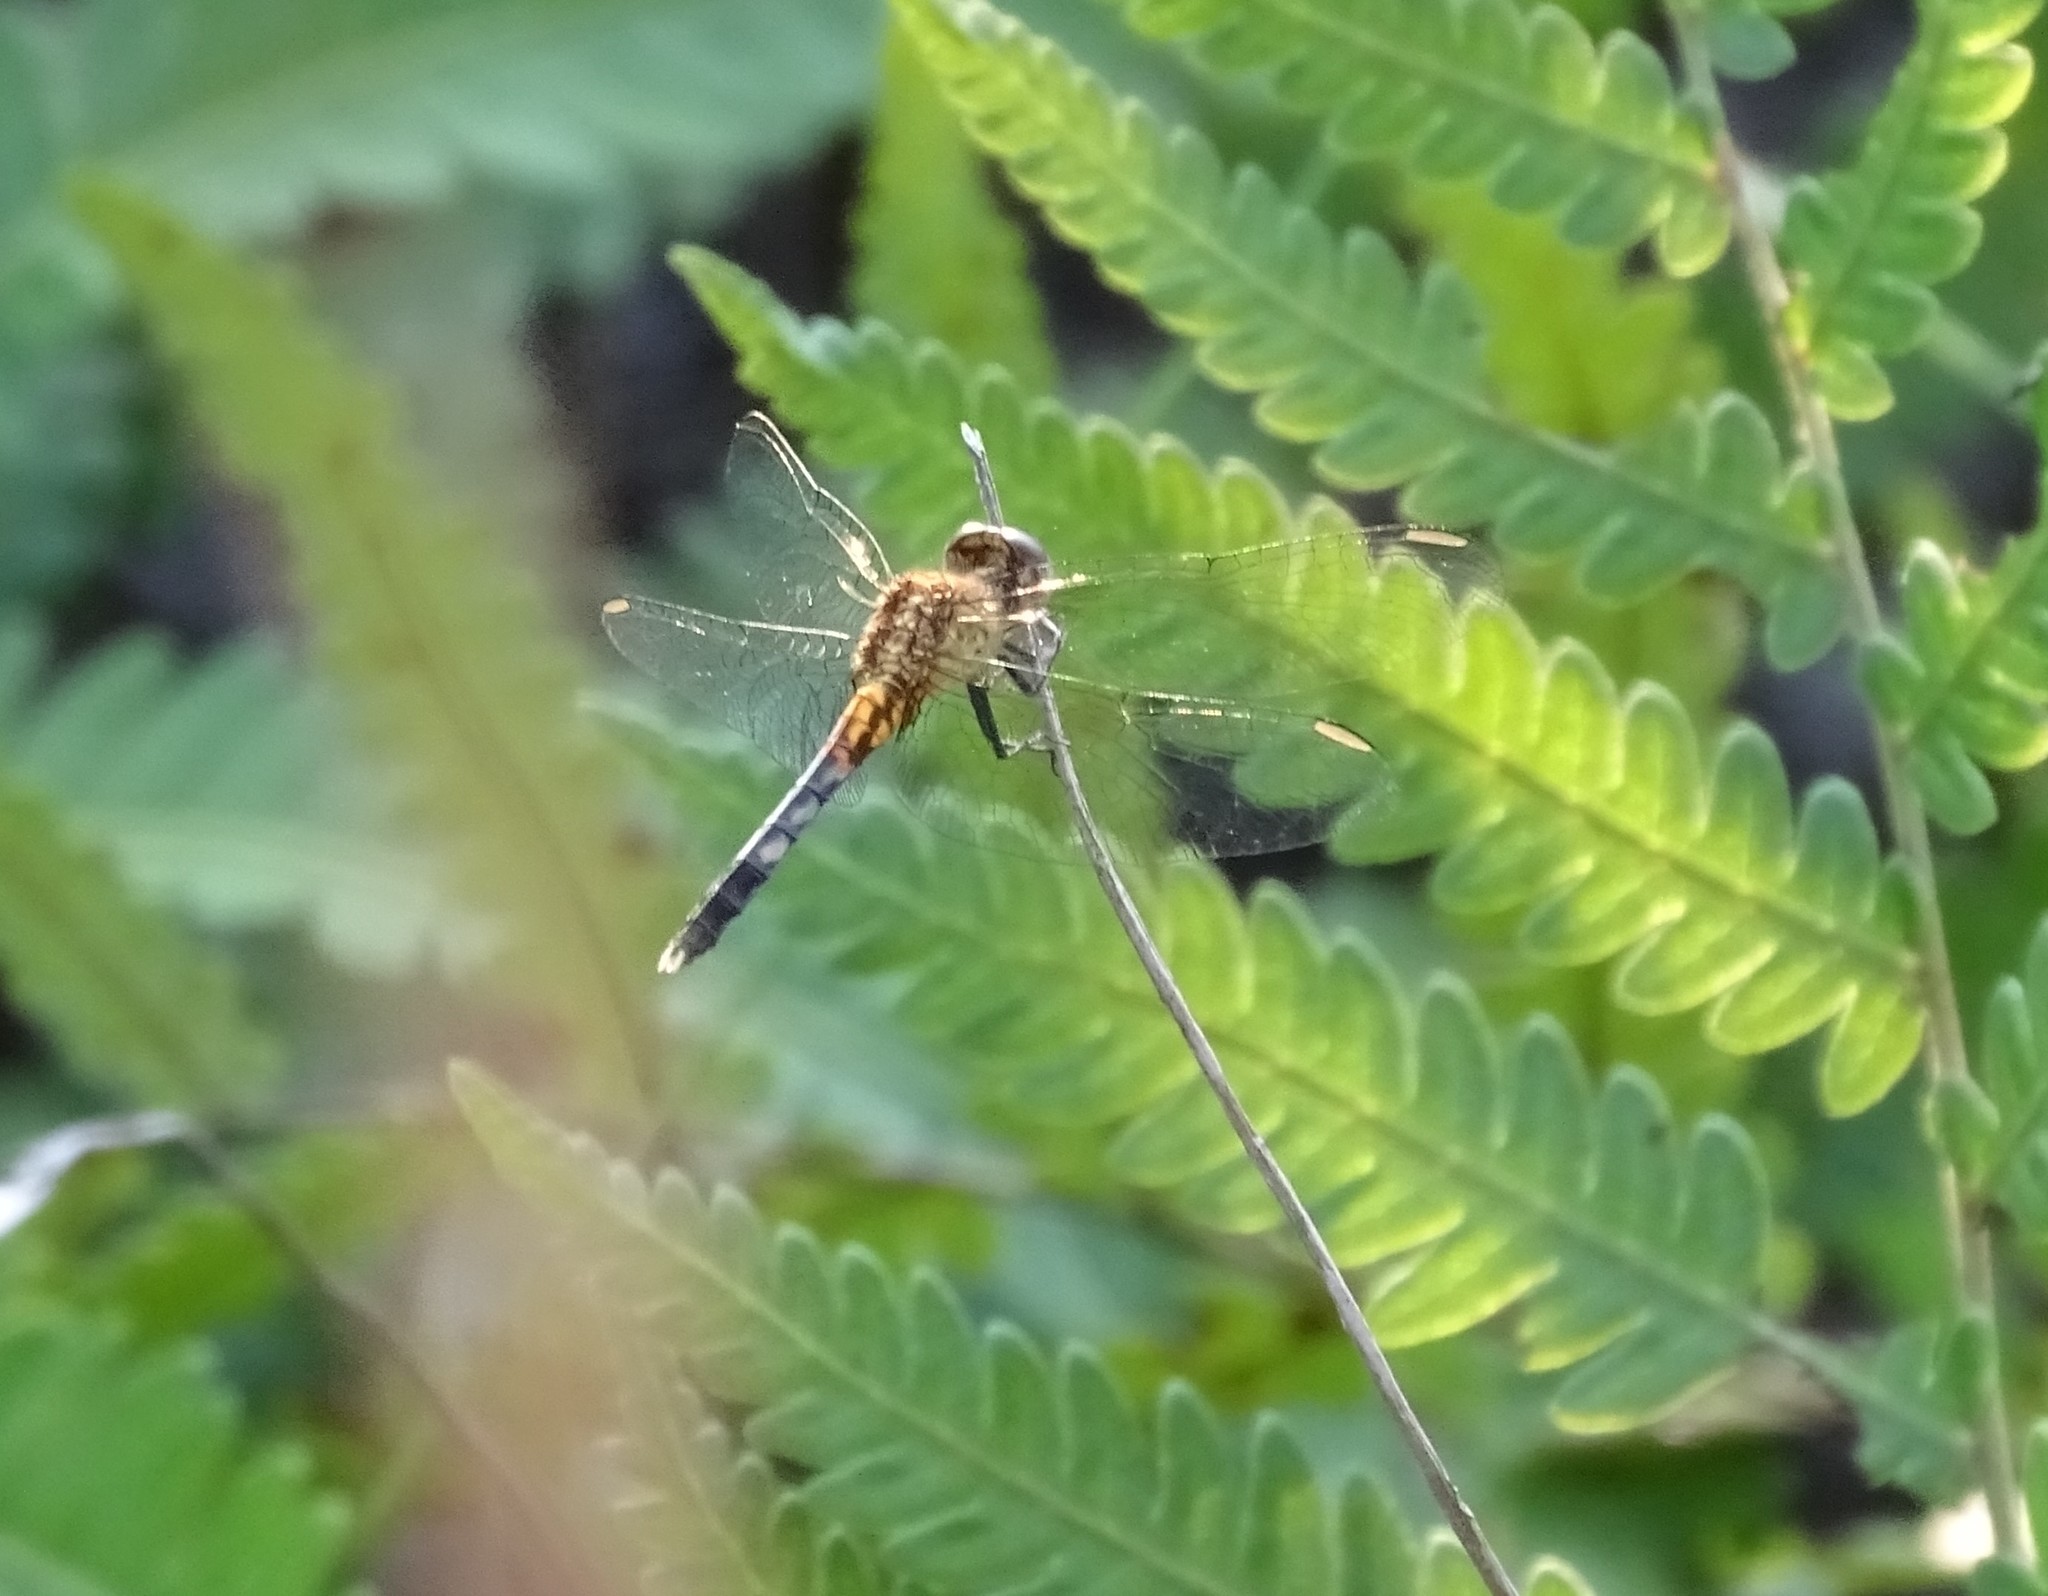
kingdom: Animalia
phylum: Arthropoda
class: Insecta
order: Odonata
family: Libellulidae
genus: Erythrodiplax
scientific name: Erythrodiplax minuscula
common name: Little blue dragonlet
